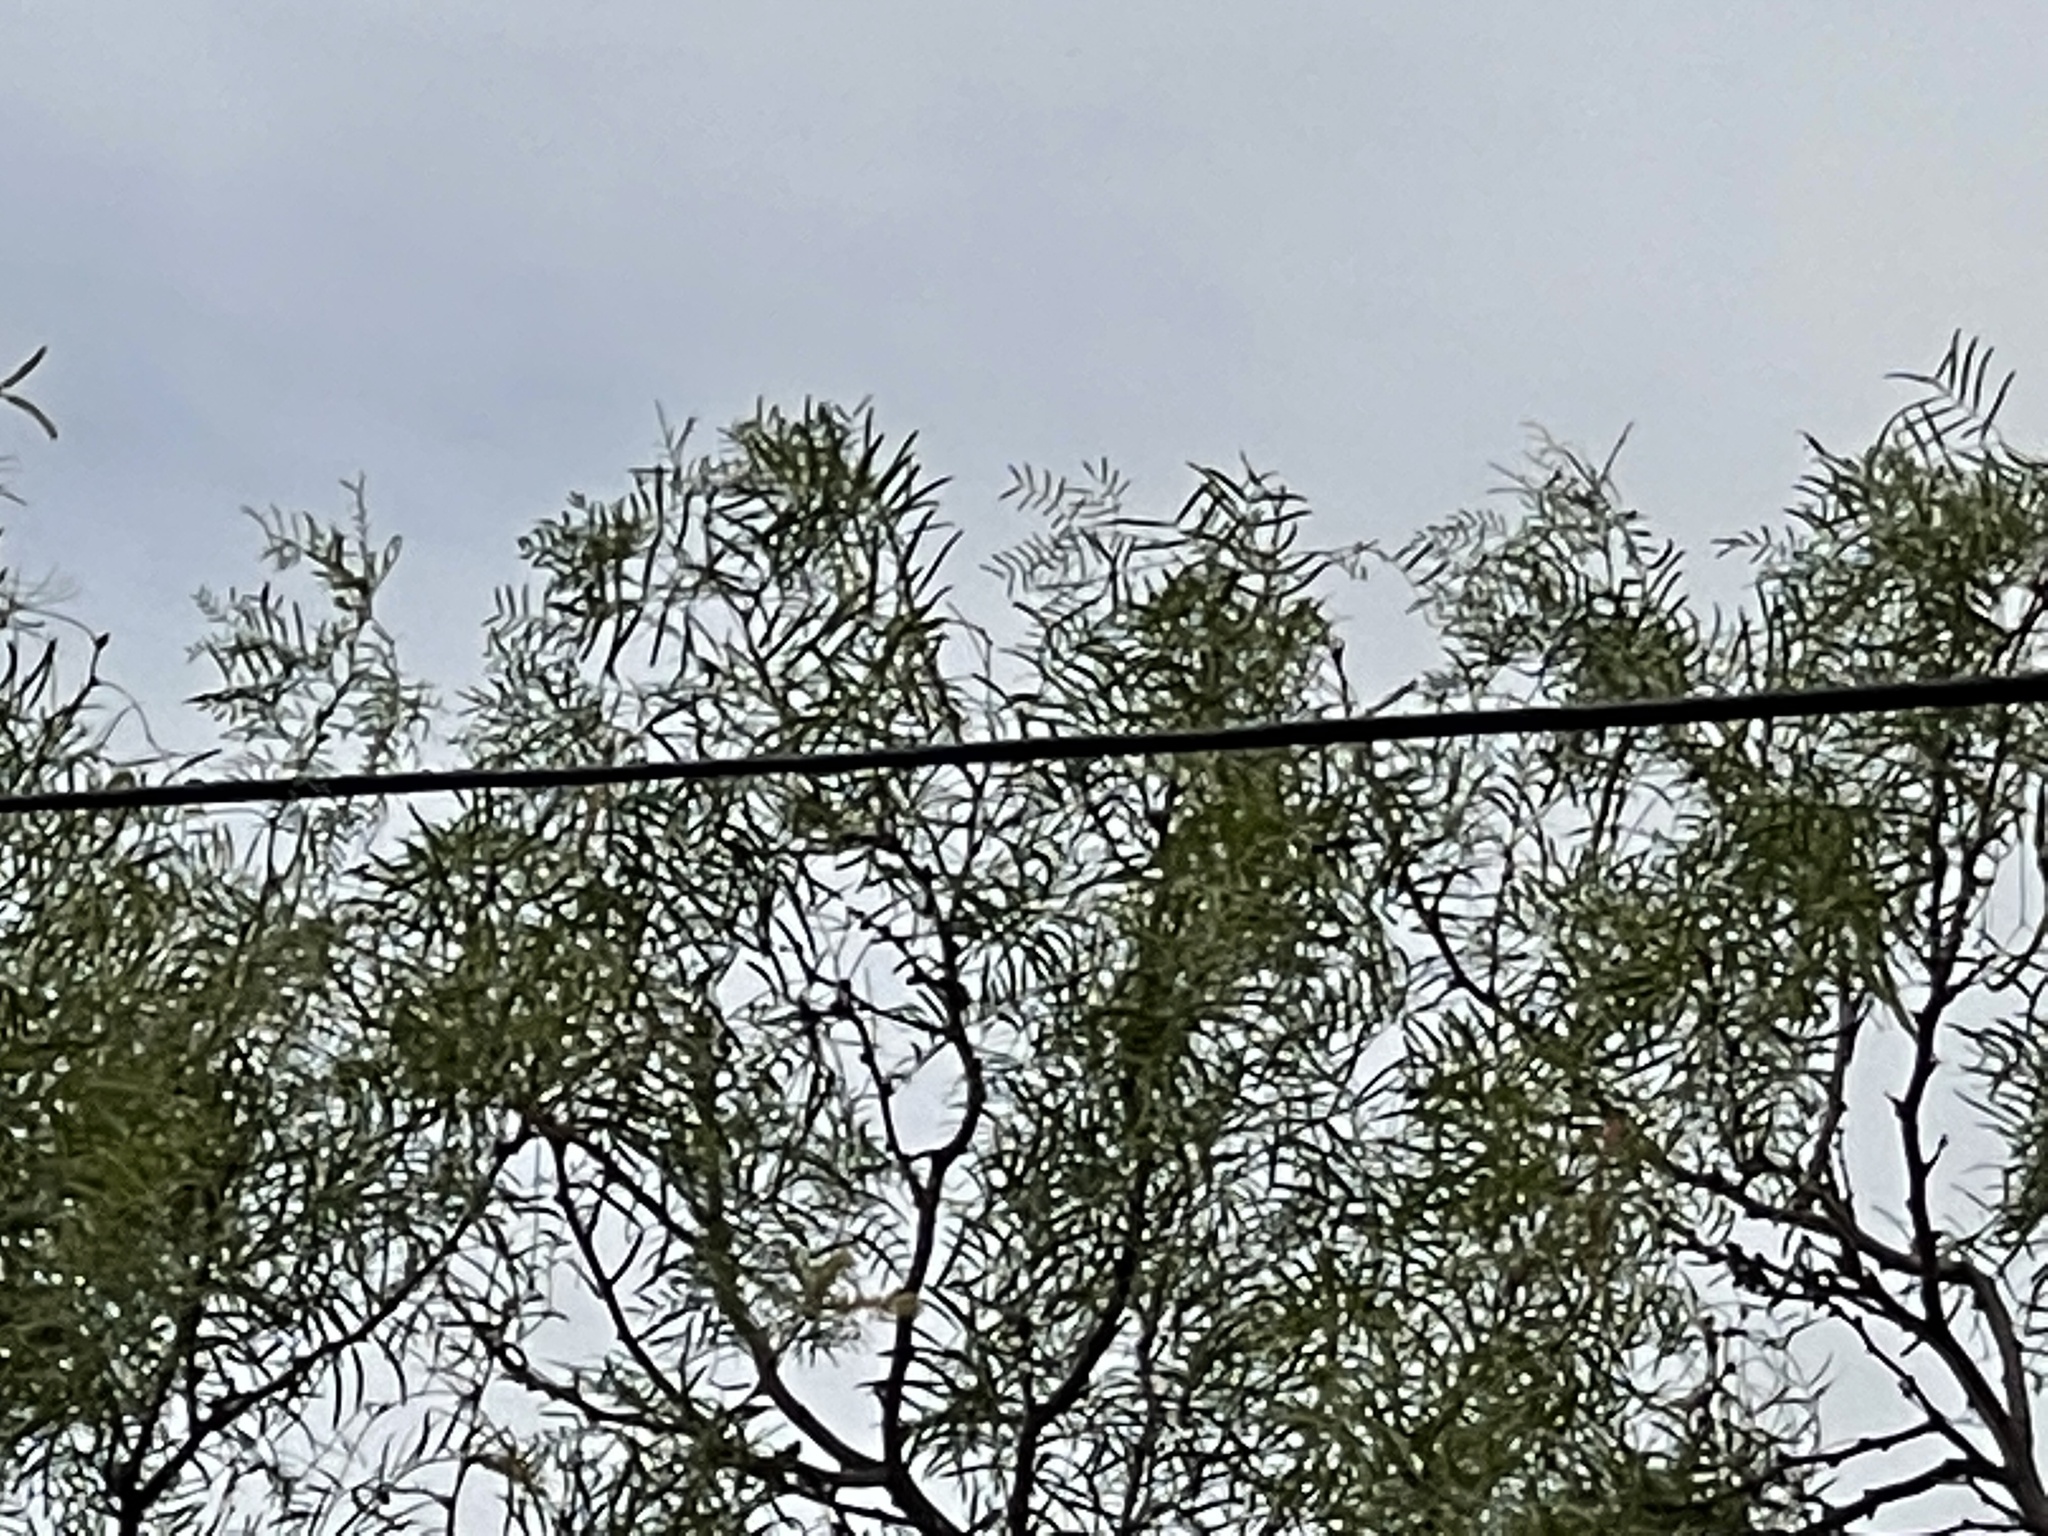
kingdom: Plantae
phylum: Tracheophyta
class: Magnoliopsida
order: Fabales
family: Fabaceae
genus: Prosopis
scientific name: Prosopis glandulosa
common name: Honey mesquite
